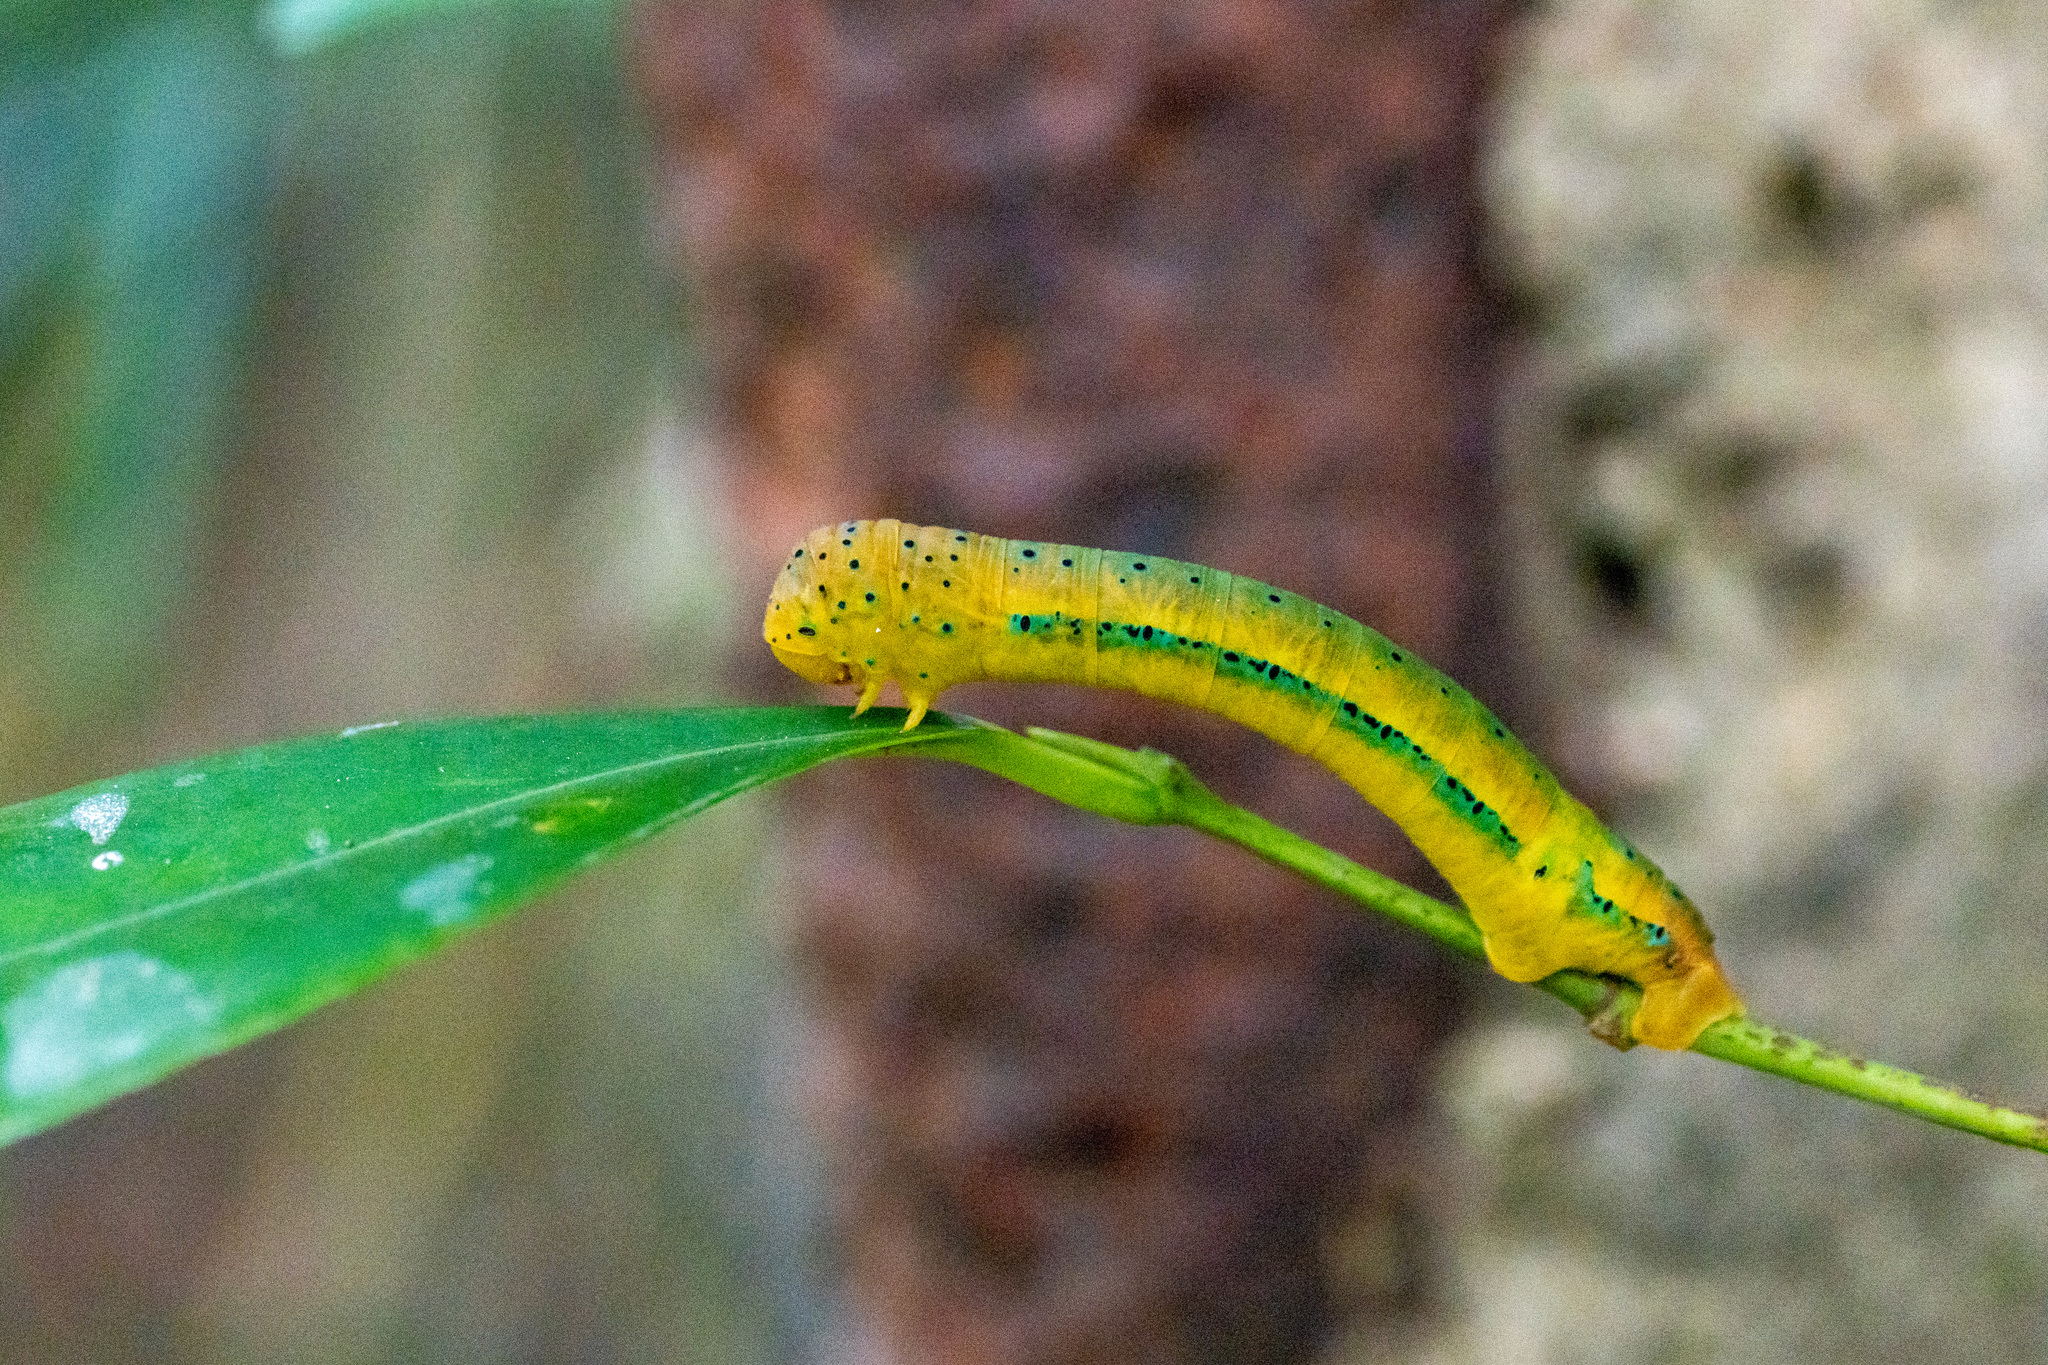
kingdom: Animalia
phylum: Arthropoda
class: Insecta
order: Lepidoptera
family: Geometridae
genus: Dysphania
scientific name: Dysphania militaris
